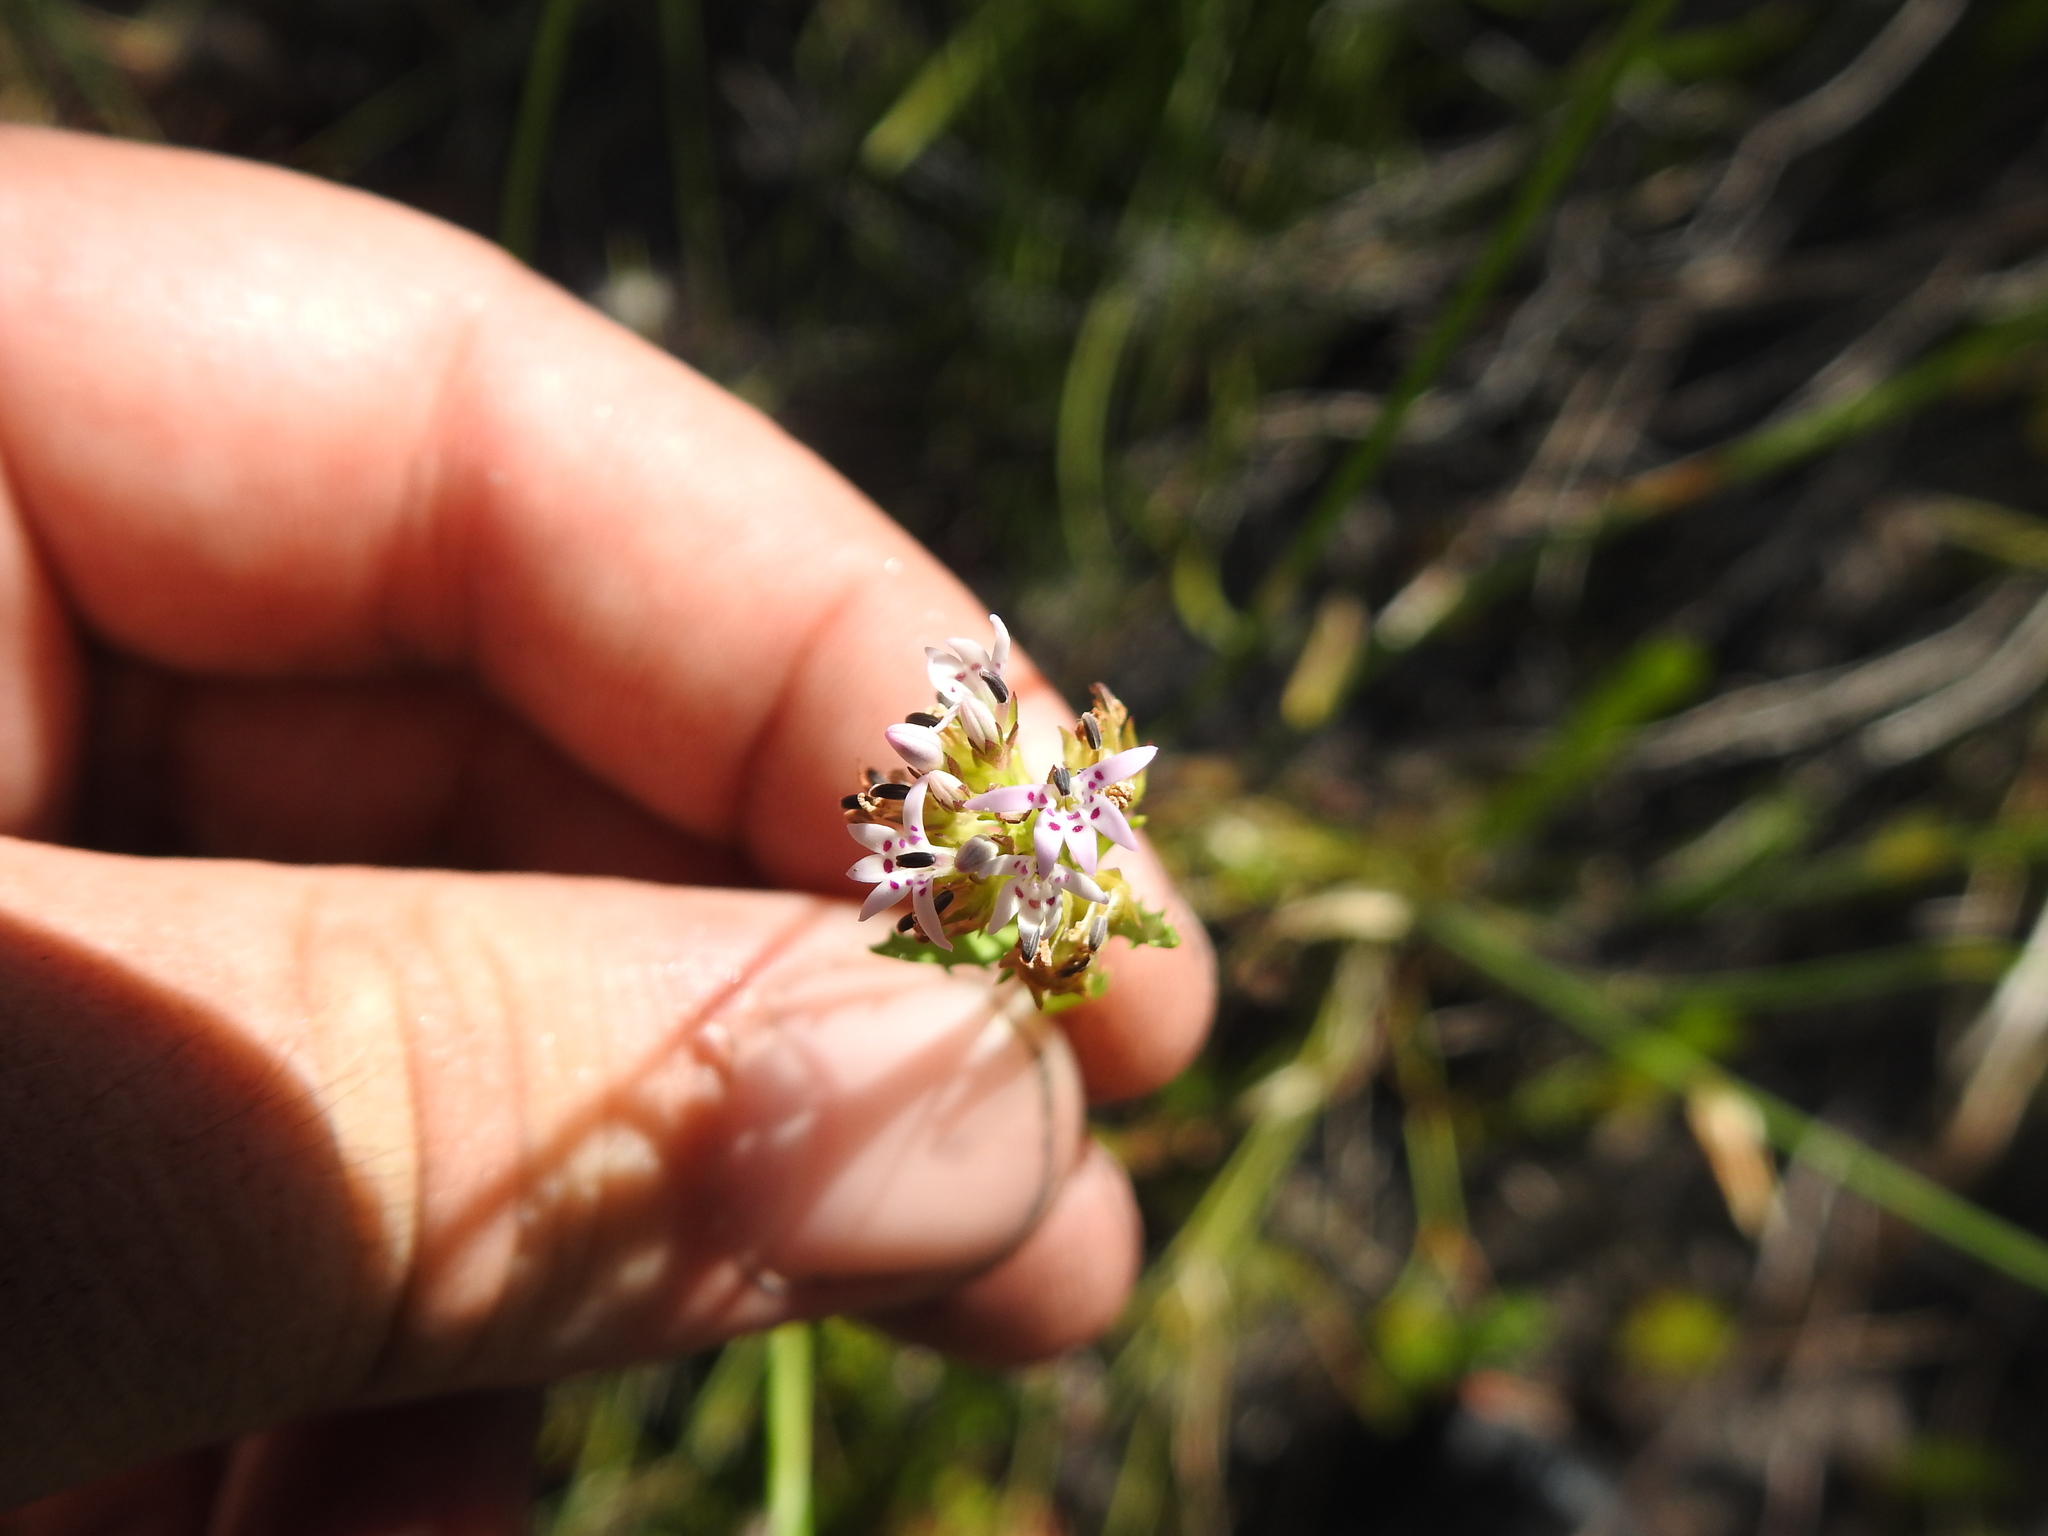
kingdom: Plantae
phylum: Tracheophyta
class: Magnoliopsida
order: Asterales
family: Campanulaceae
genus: Lobelia
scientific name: Lobelia jasionoides
